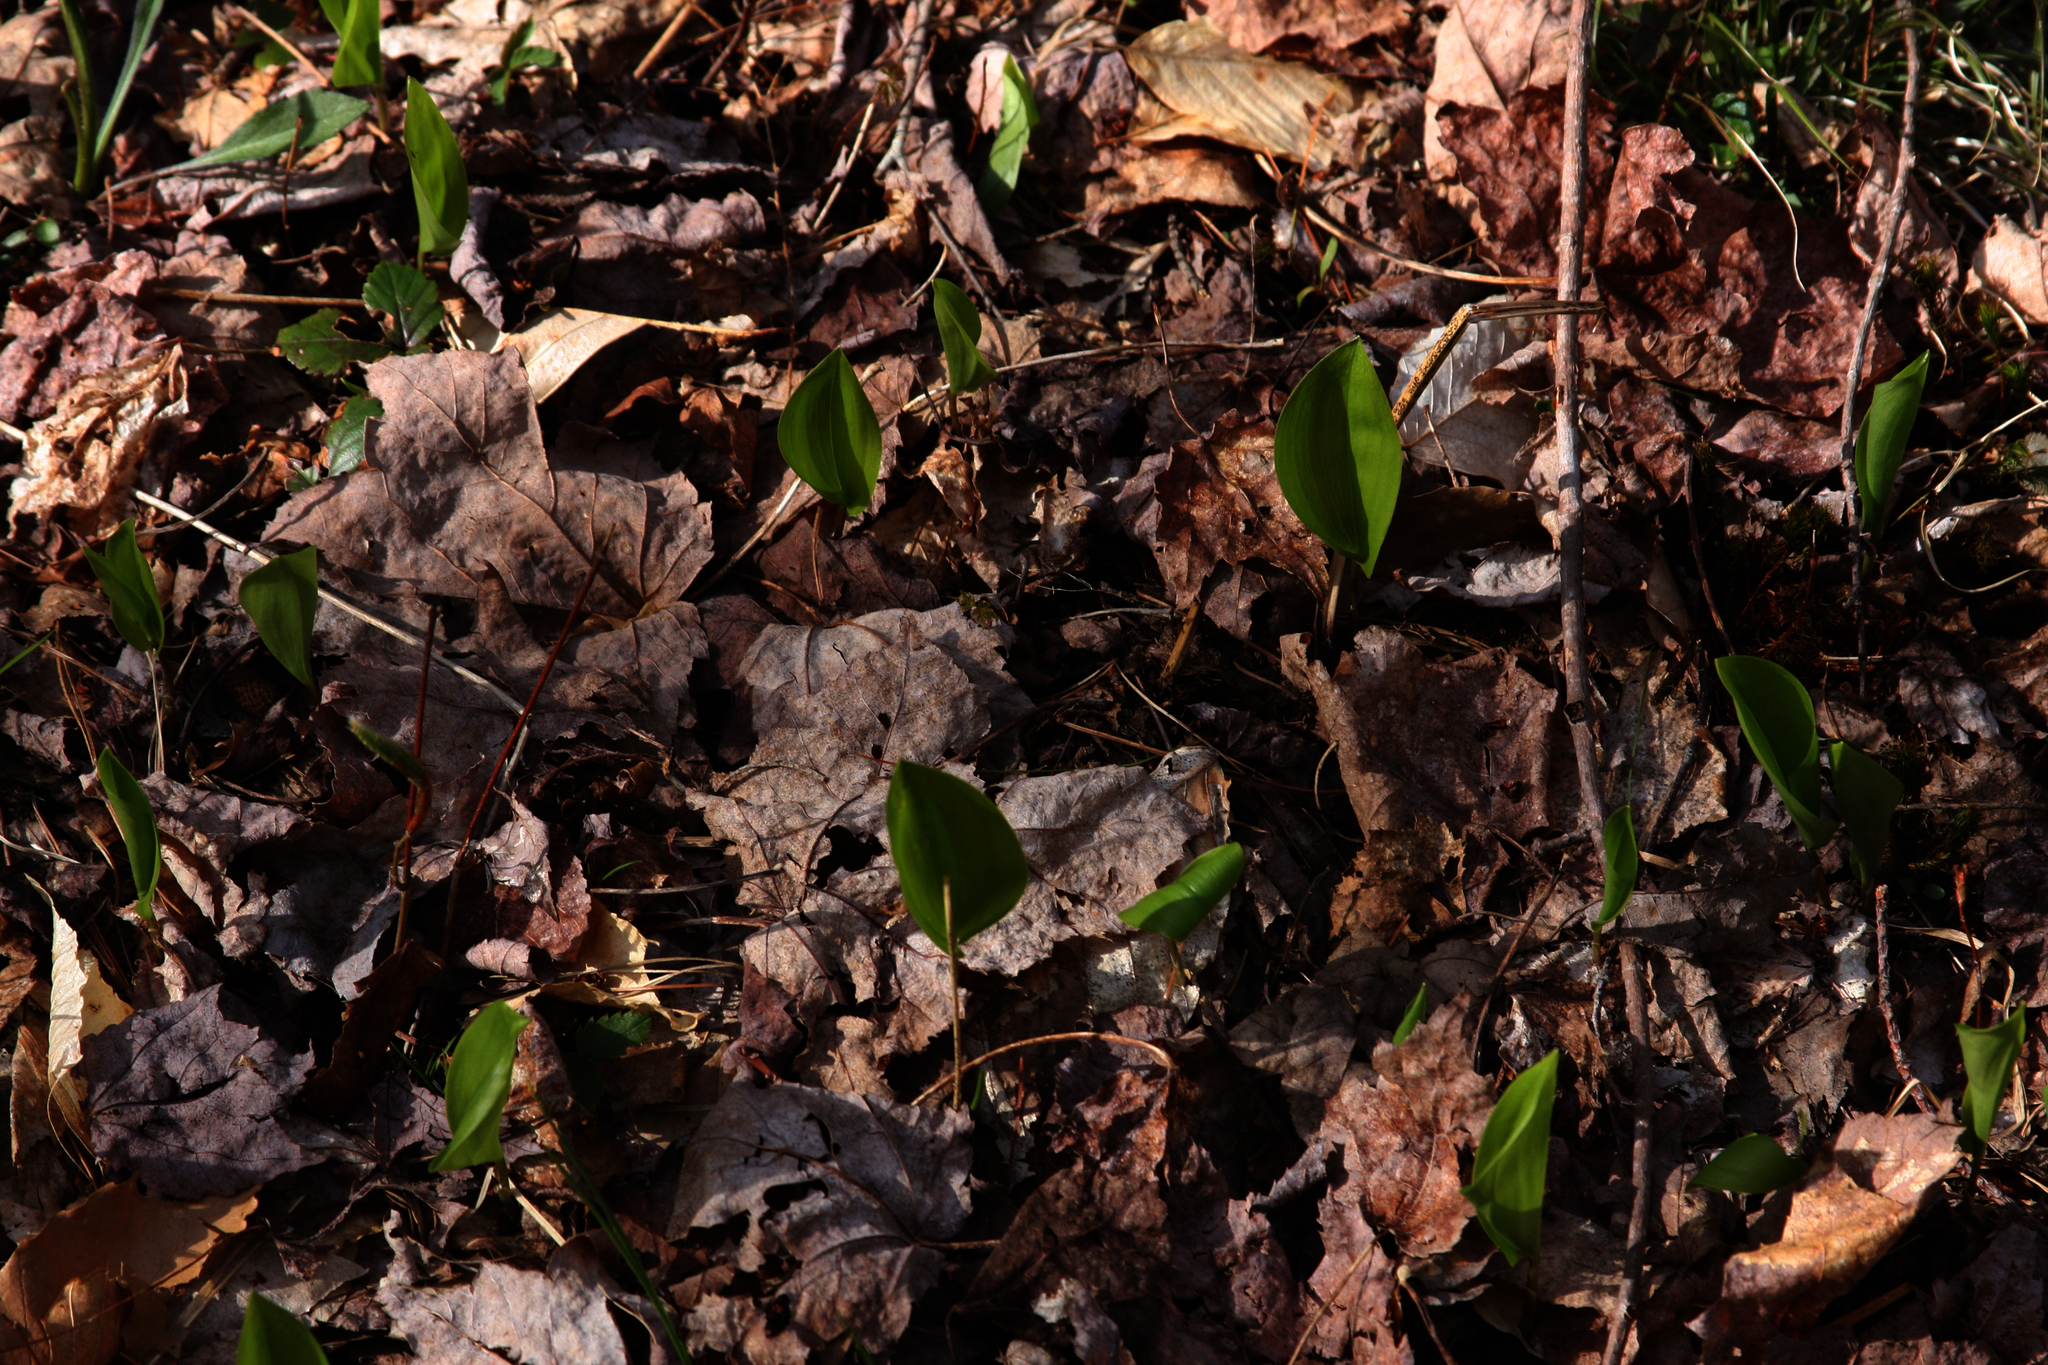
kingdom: Plantae
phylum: Tracheophyta
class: Liliopsida
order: Asparagales
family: Asparagaceae
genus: Maianthemum
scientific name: Maianthemum canadense
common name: False lily-of-the-valley
